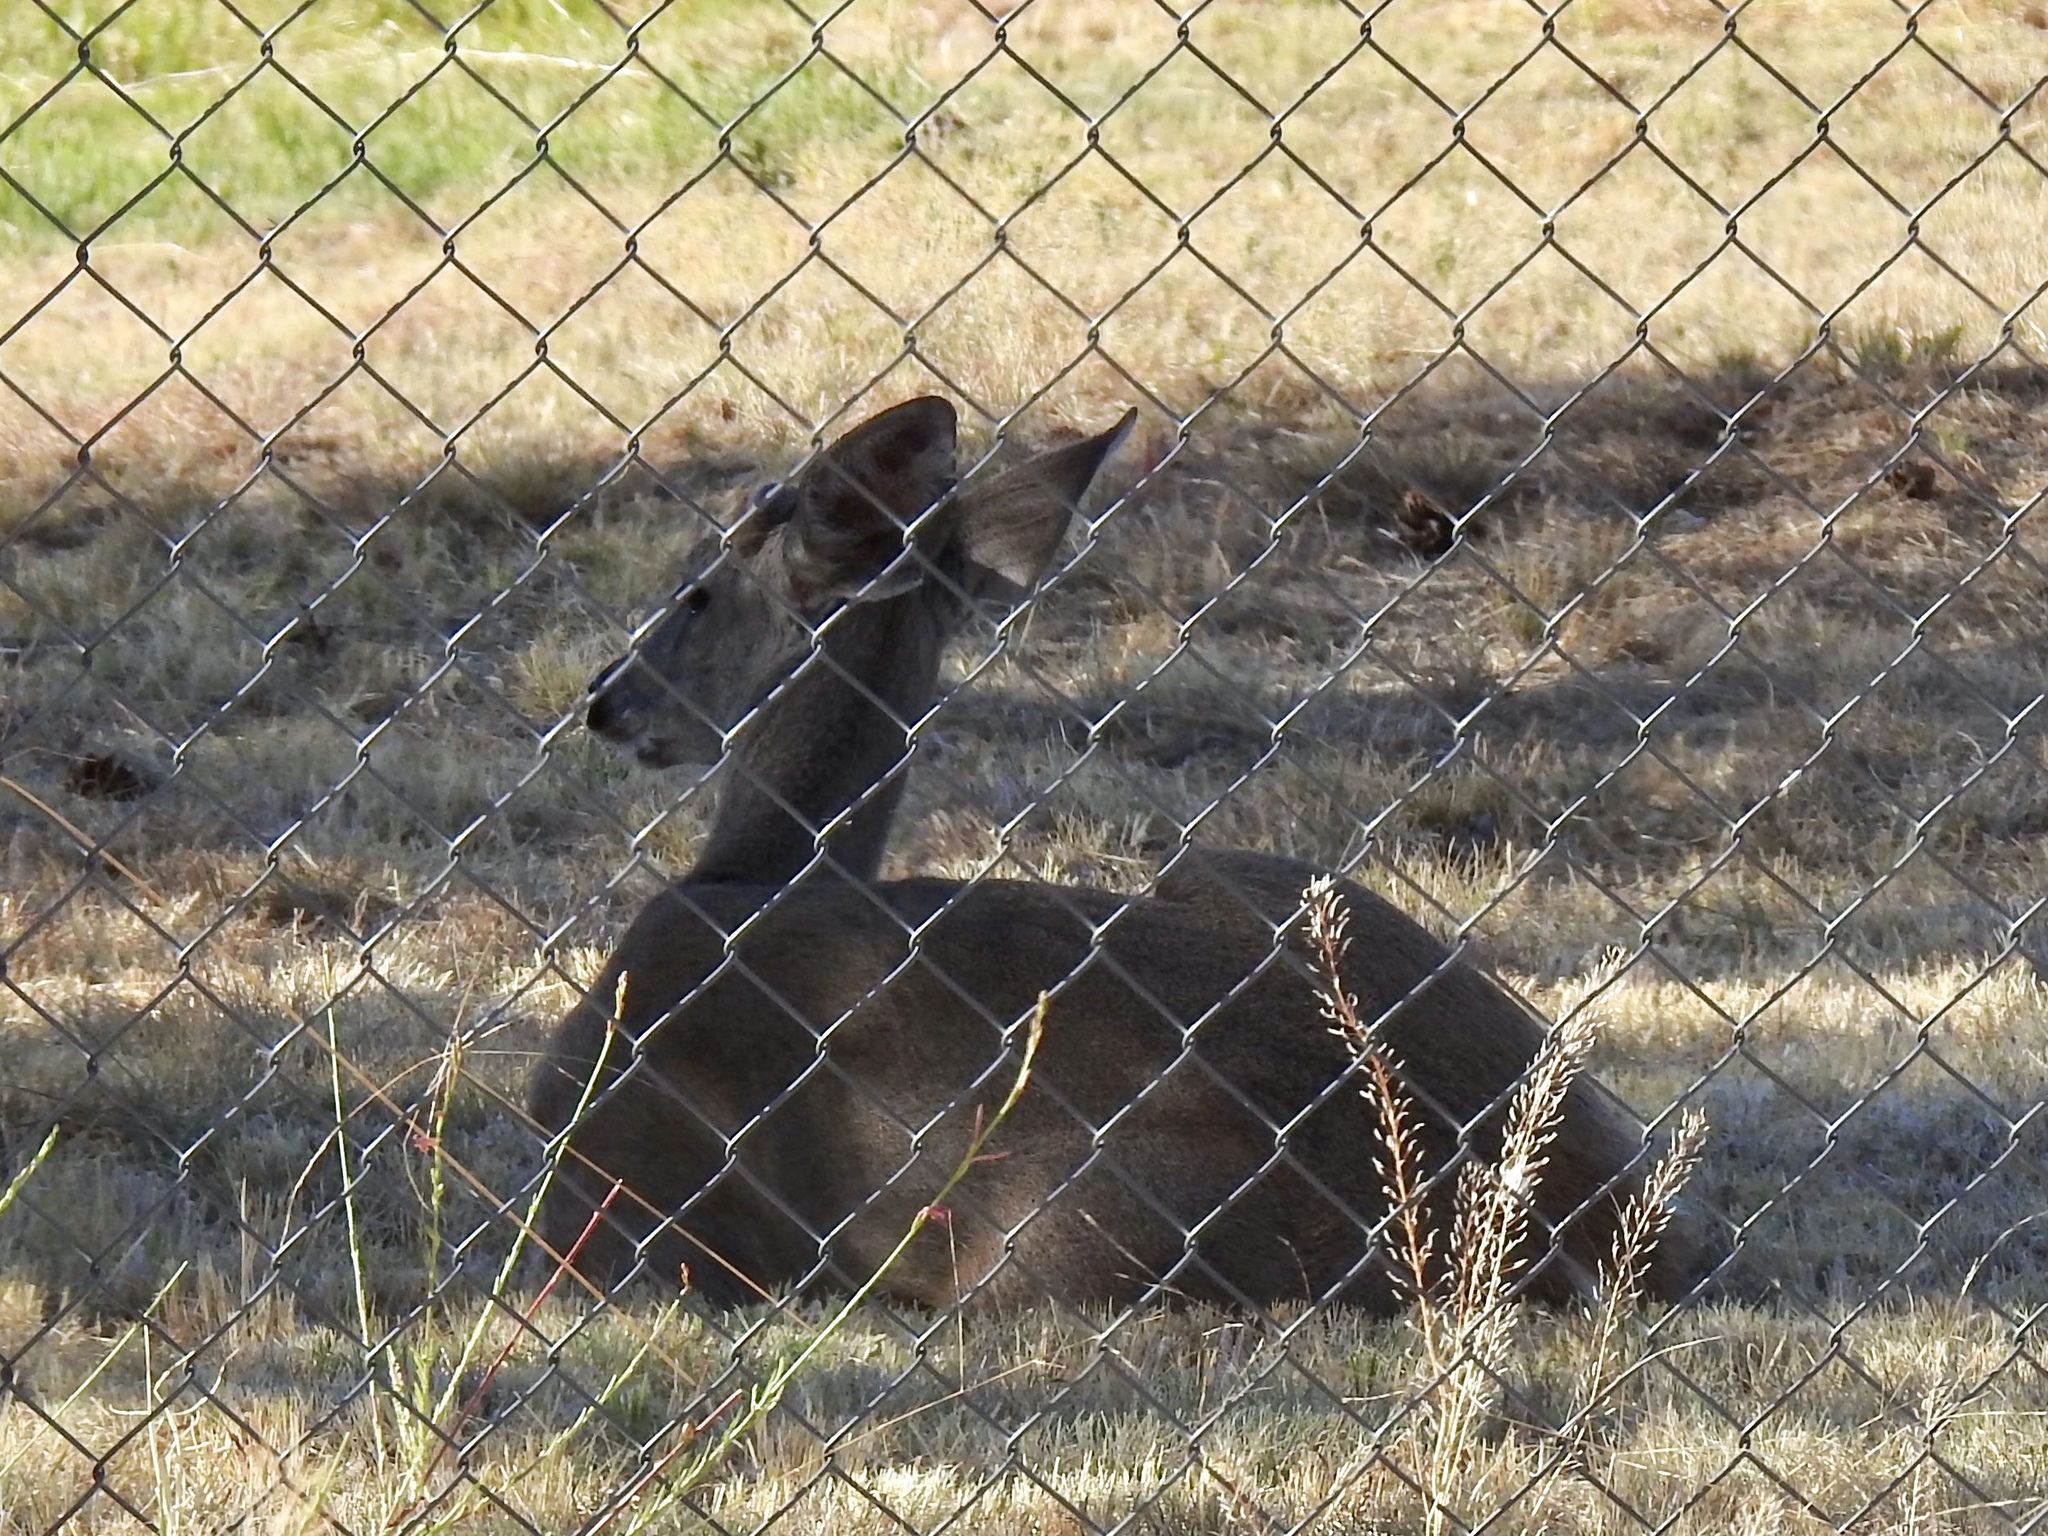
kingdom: Animalia
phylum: Chordata
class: Mammalia
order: Artiodactyla
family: Cervidae
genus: Odocoileus
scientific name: Odocoileus virginianus
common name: White-tailed deer
